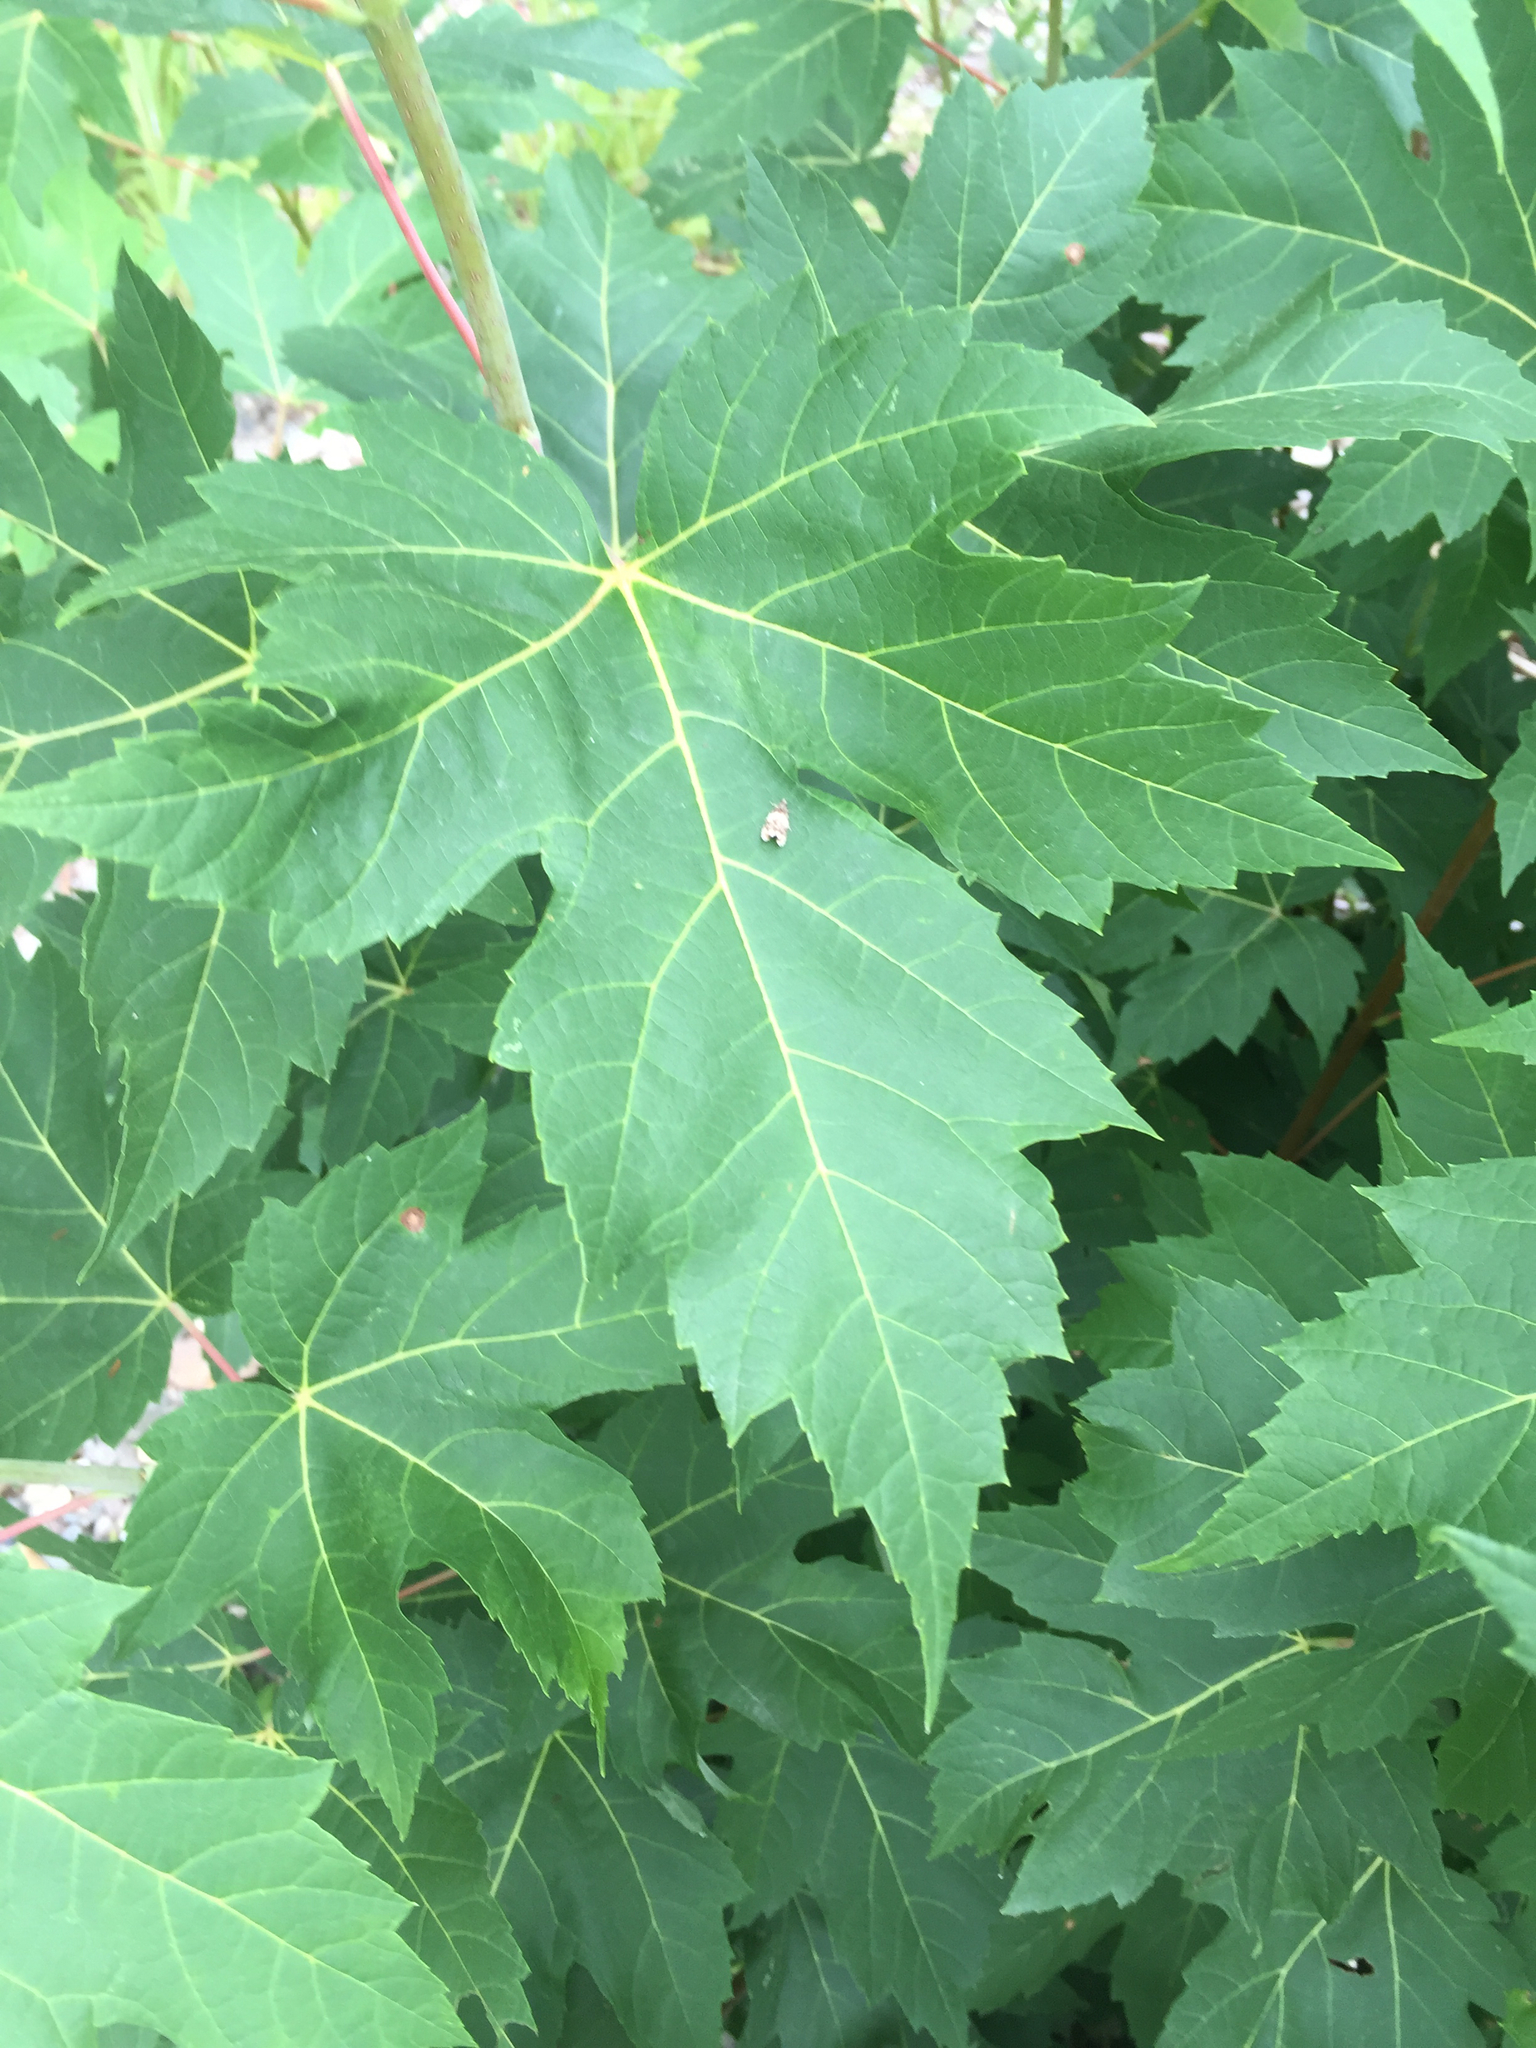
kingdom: Plantae
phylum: Tracheophyta
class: Magnoliopsida
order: Sapindales
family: Sapindaceae
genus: Acer
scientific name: Acer saccharinum
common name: Silver maple
